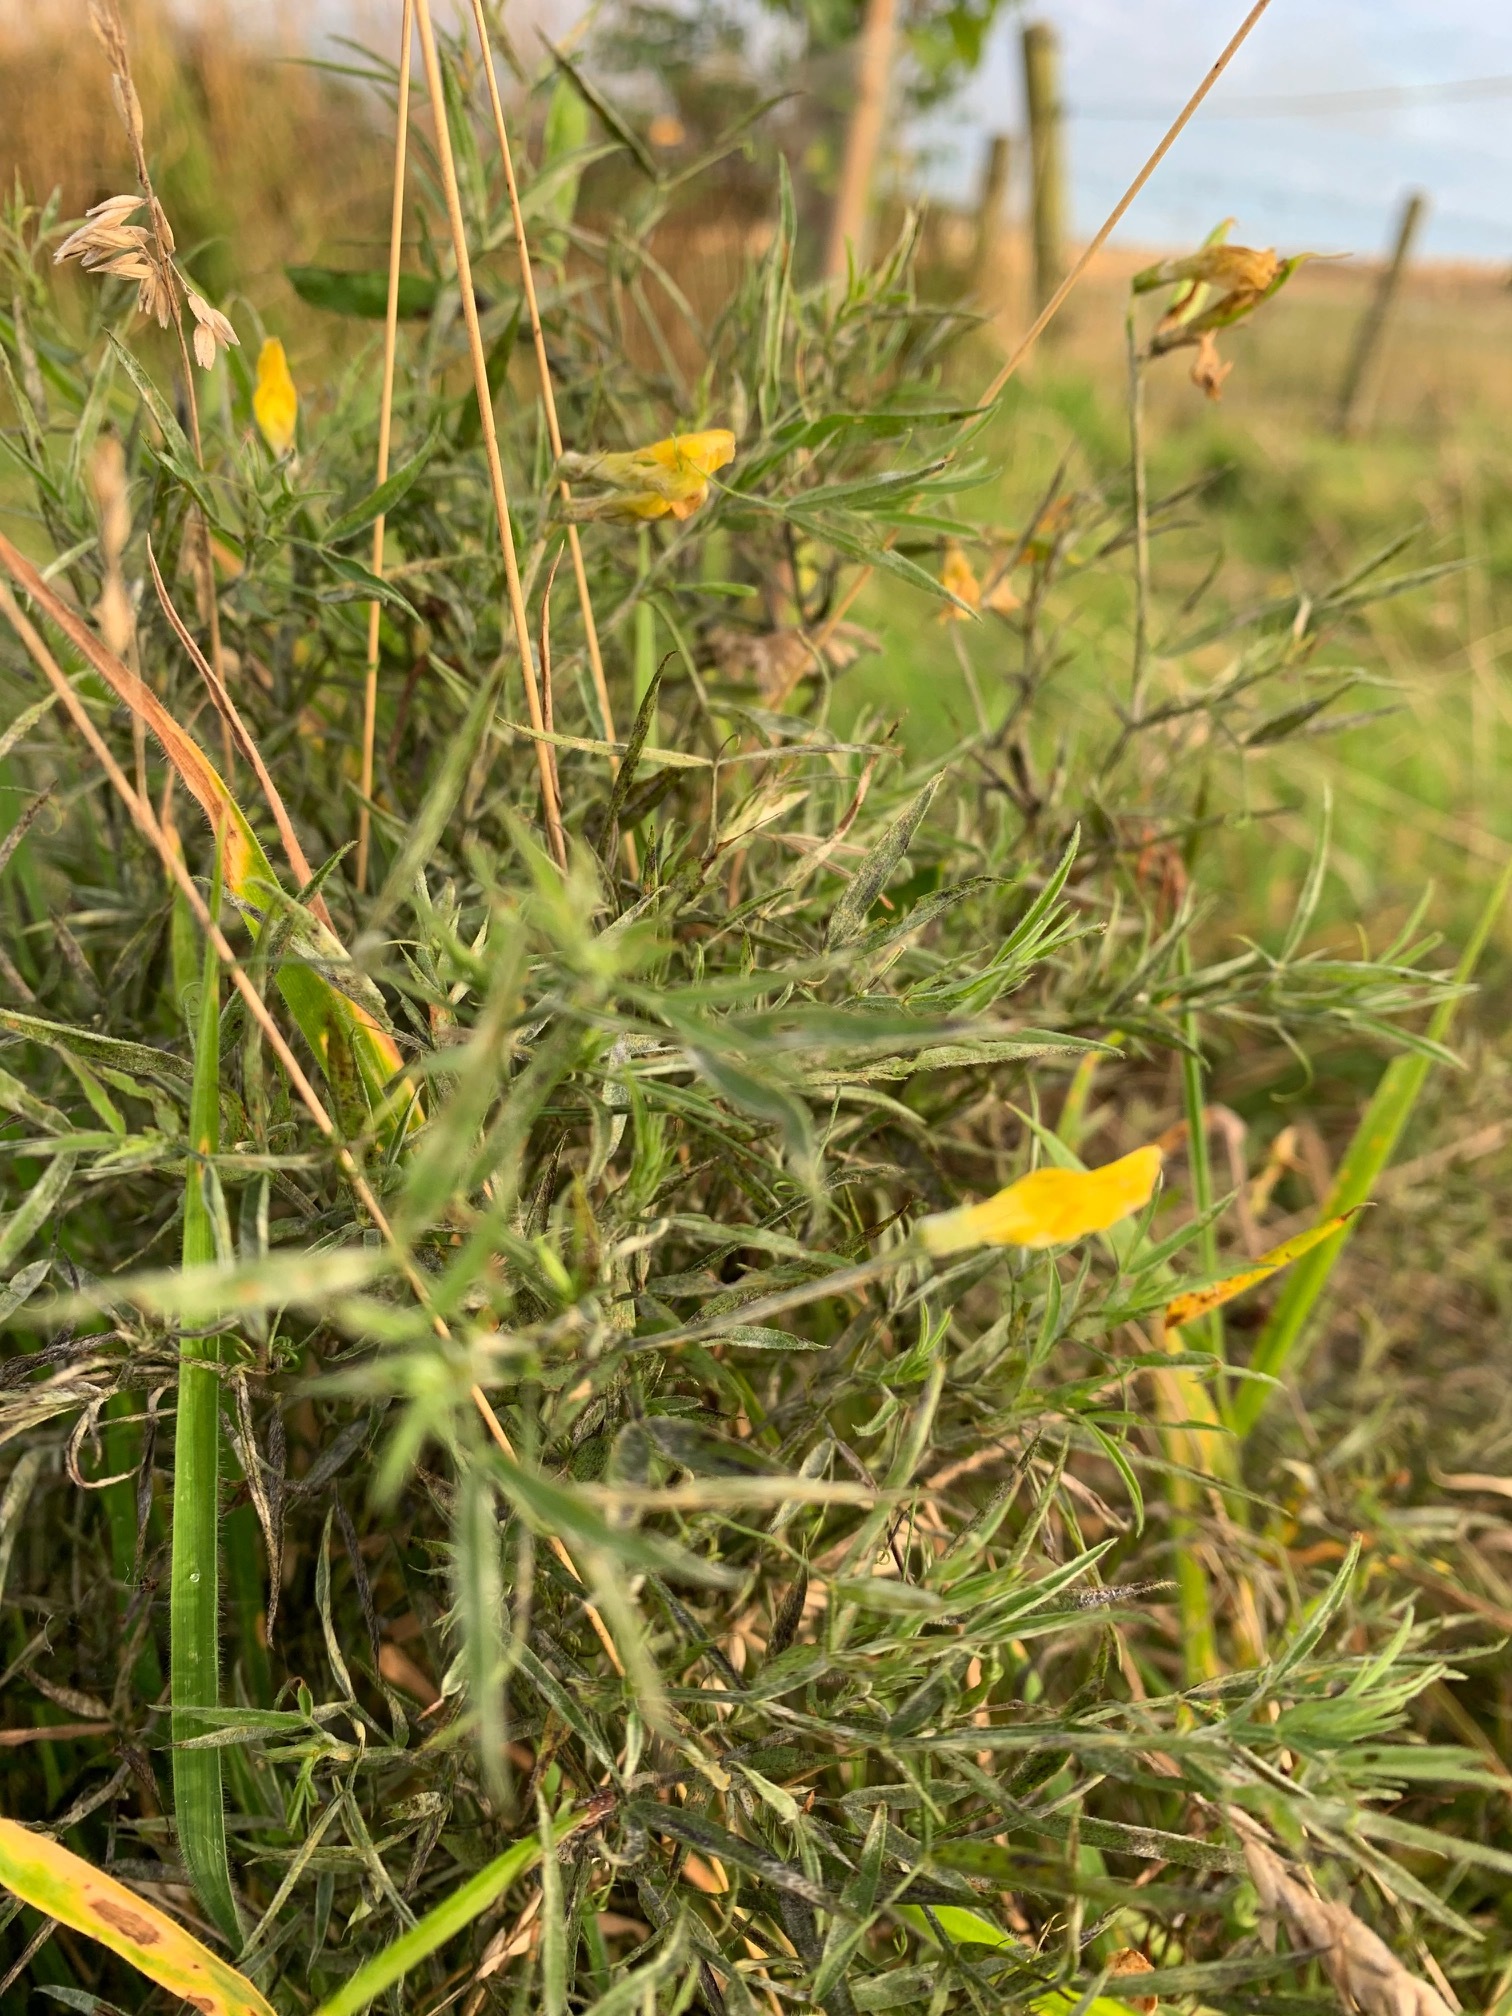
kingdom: Plantae
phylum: Tracheophyta
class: Magnoliopsida
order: Fabales
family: Fabaceae
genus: Lathyrus
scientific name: Lathyrus pratensis
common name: Meadow vetchling
